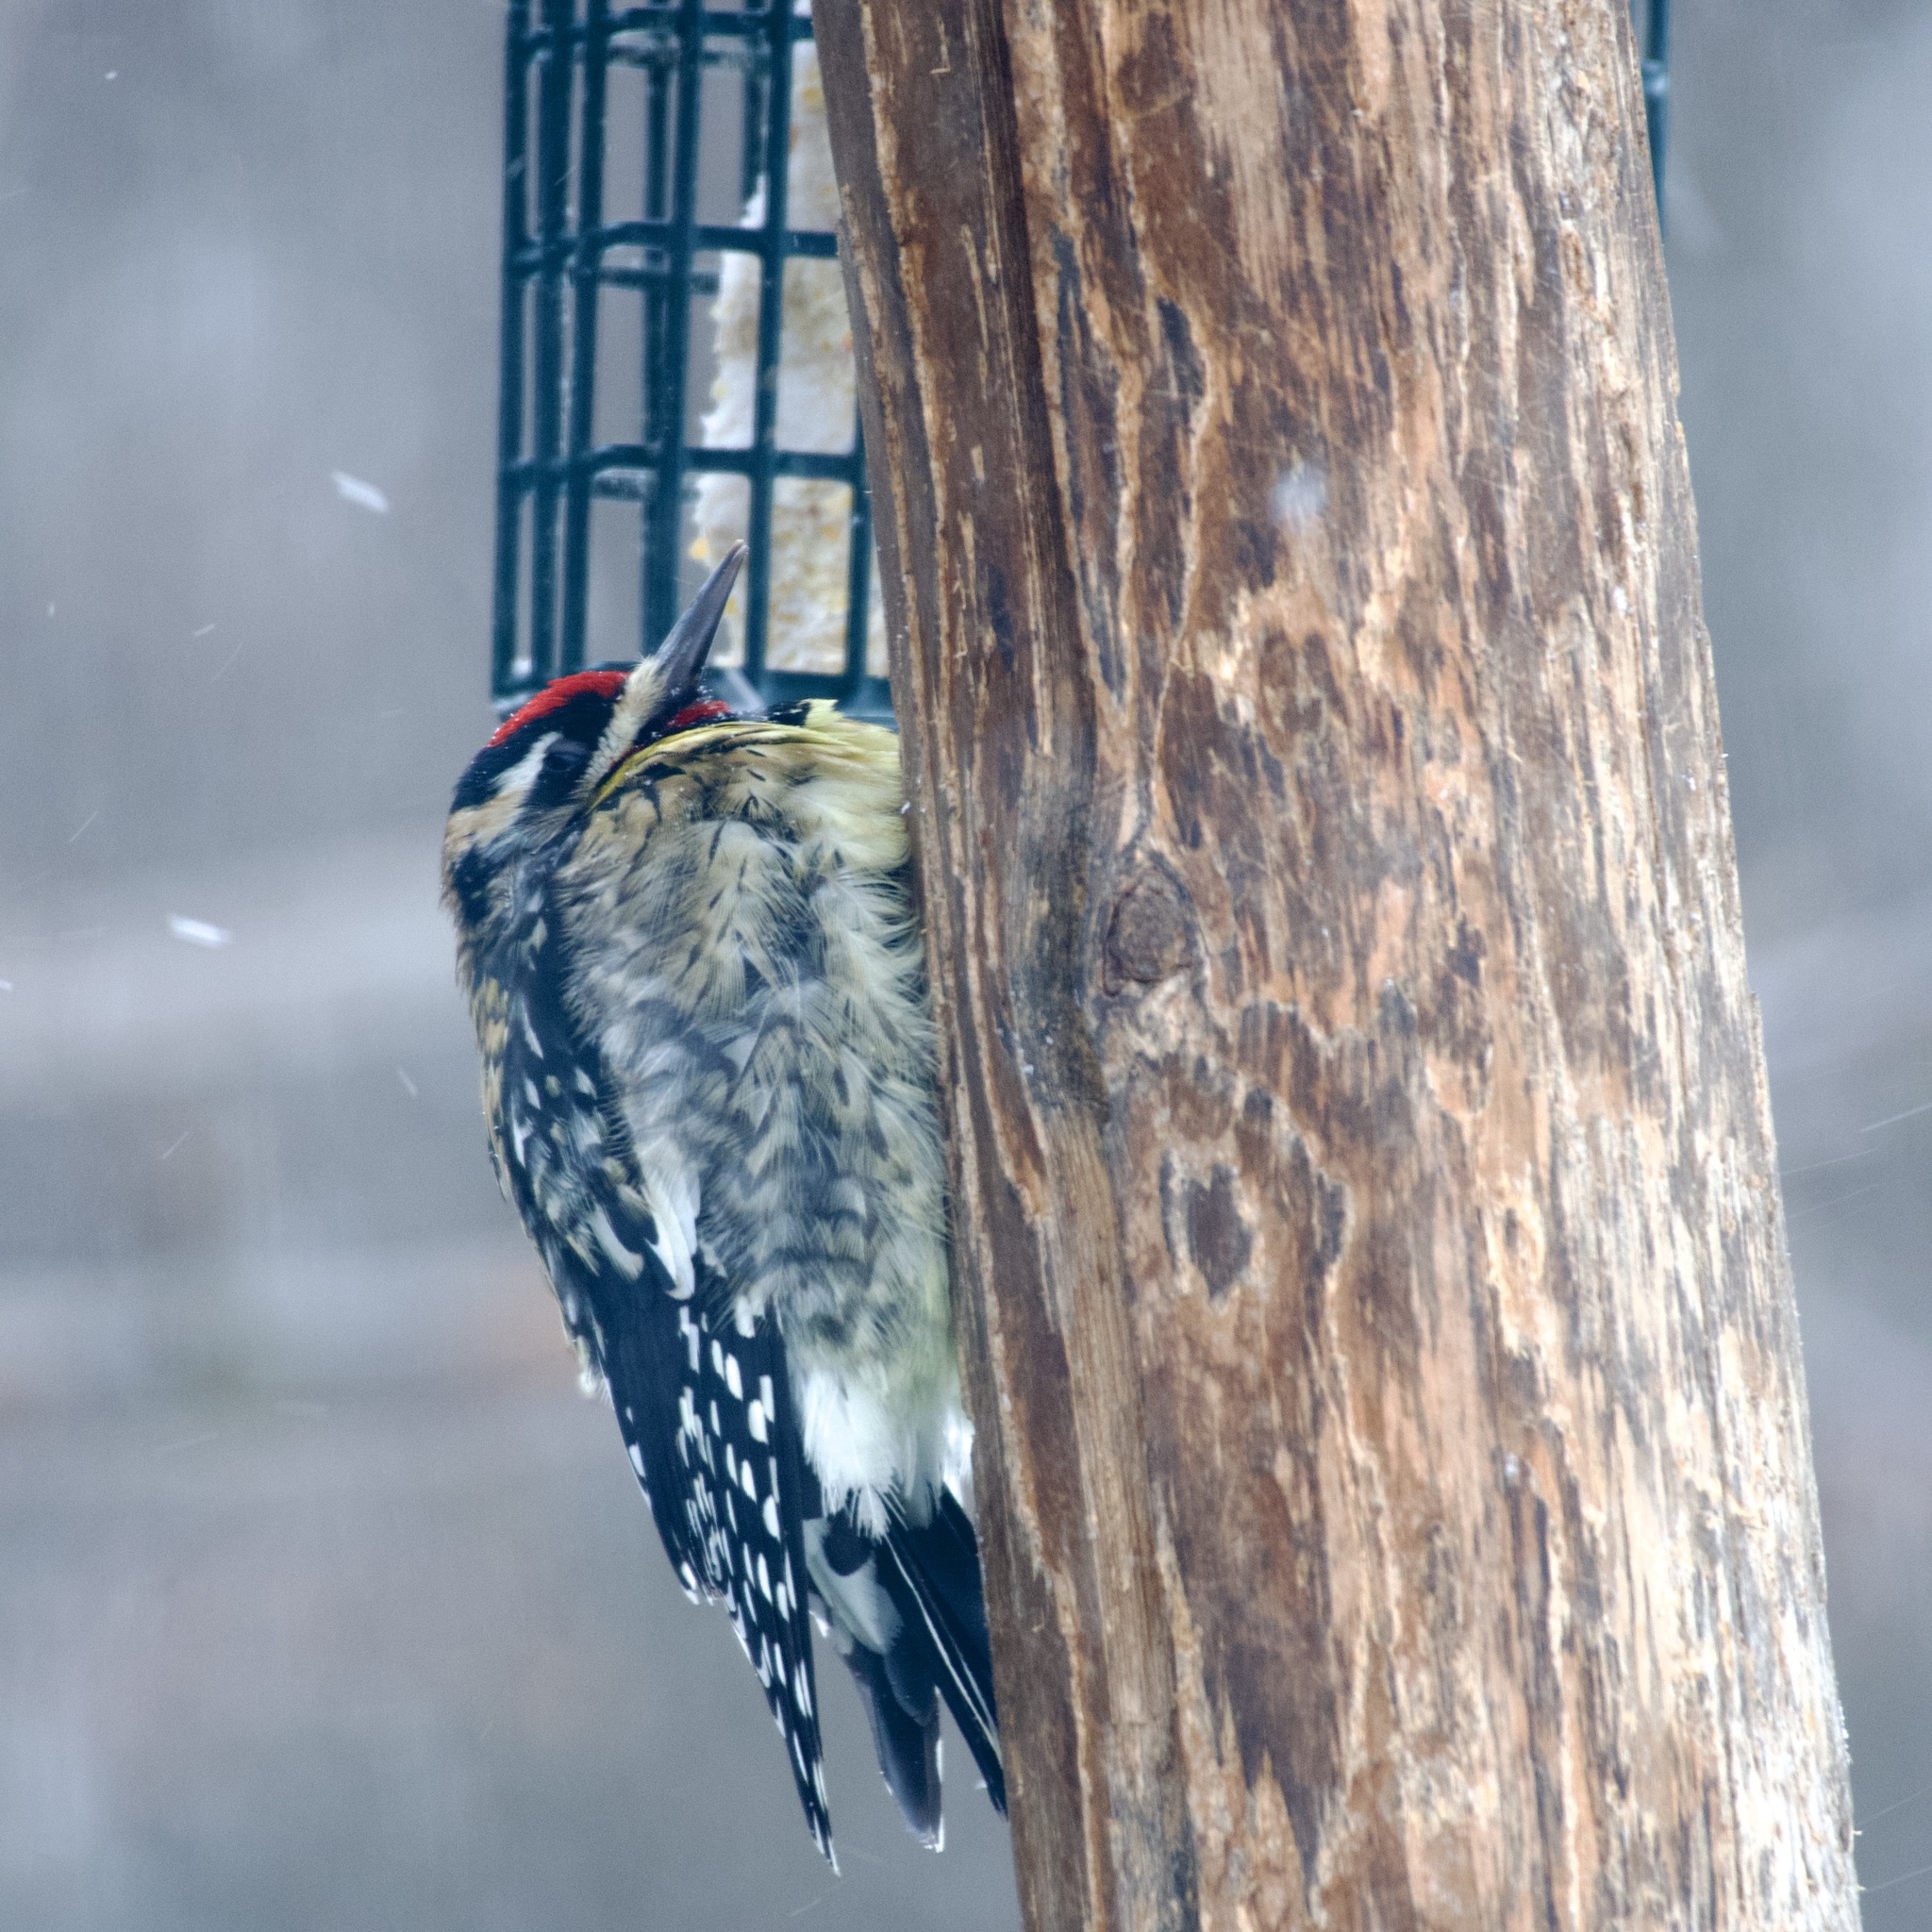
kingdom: Animalia
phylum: Chordata
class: Aves
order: Piciformes
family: Picidae
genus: Sphyrapicus
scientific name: Sphyrapicus varius
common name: Yellow-bellied sapsucker
